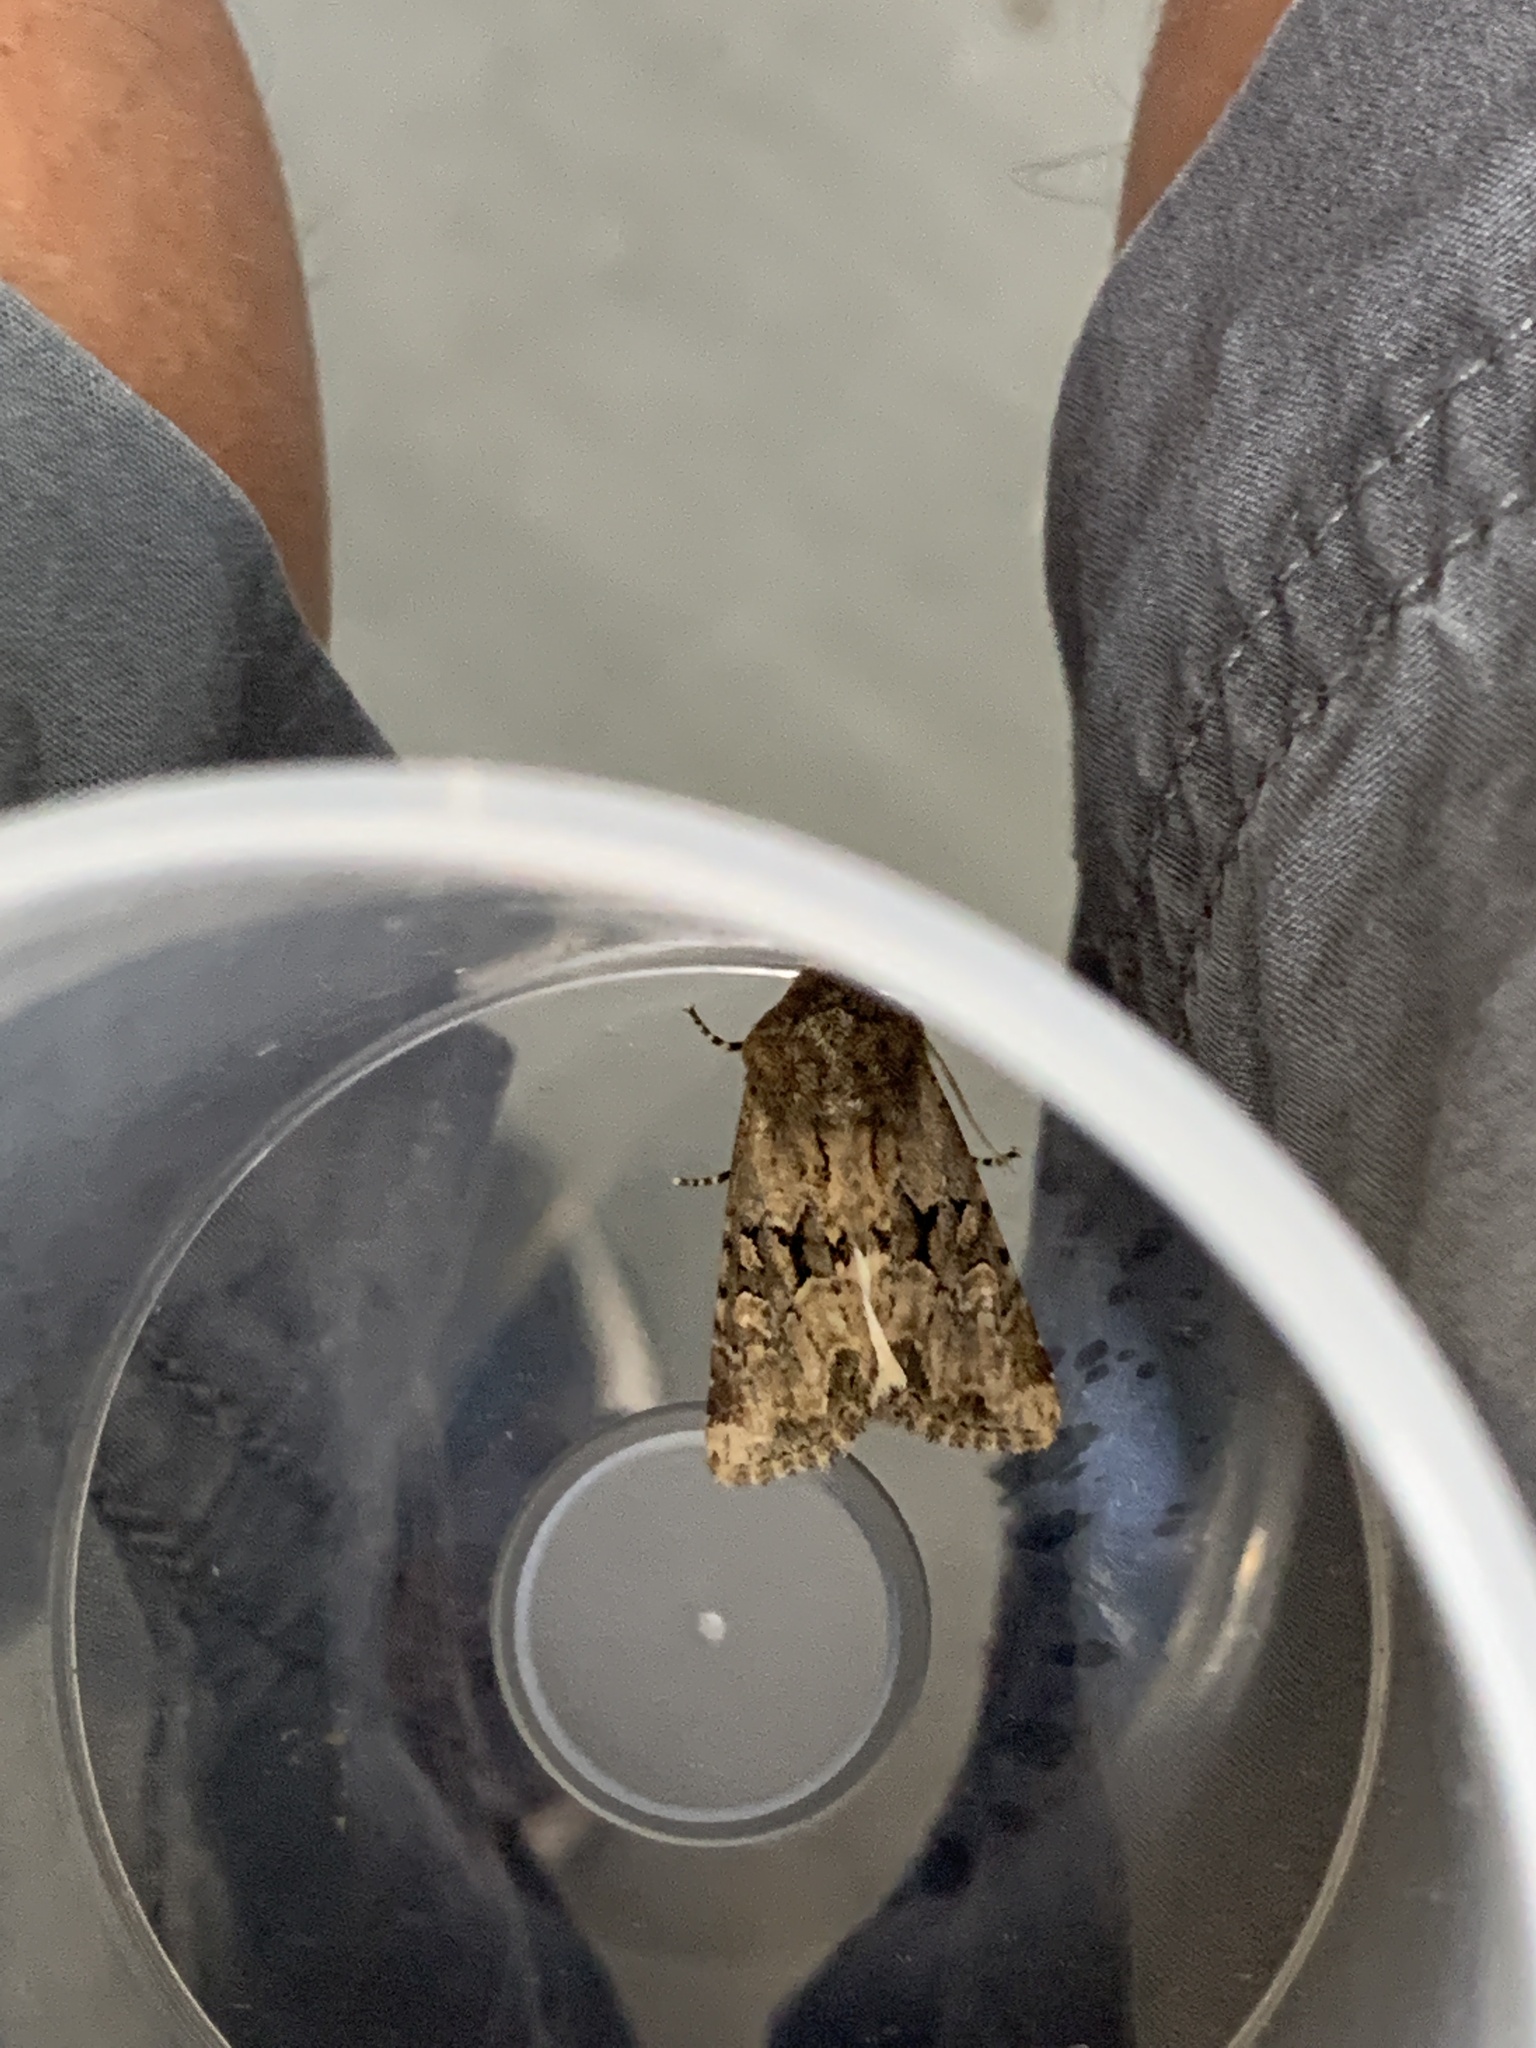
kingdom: Animalia
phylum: Arthropoda
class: Insecta
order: Lepidoptera
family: Noctuidae
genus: Luperina
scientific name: Luperina testacea
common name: Flounced rustic
